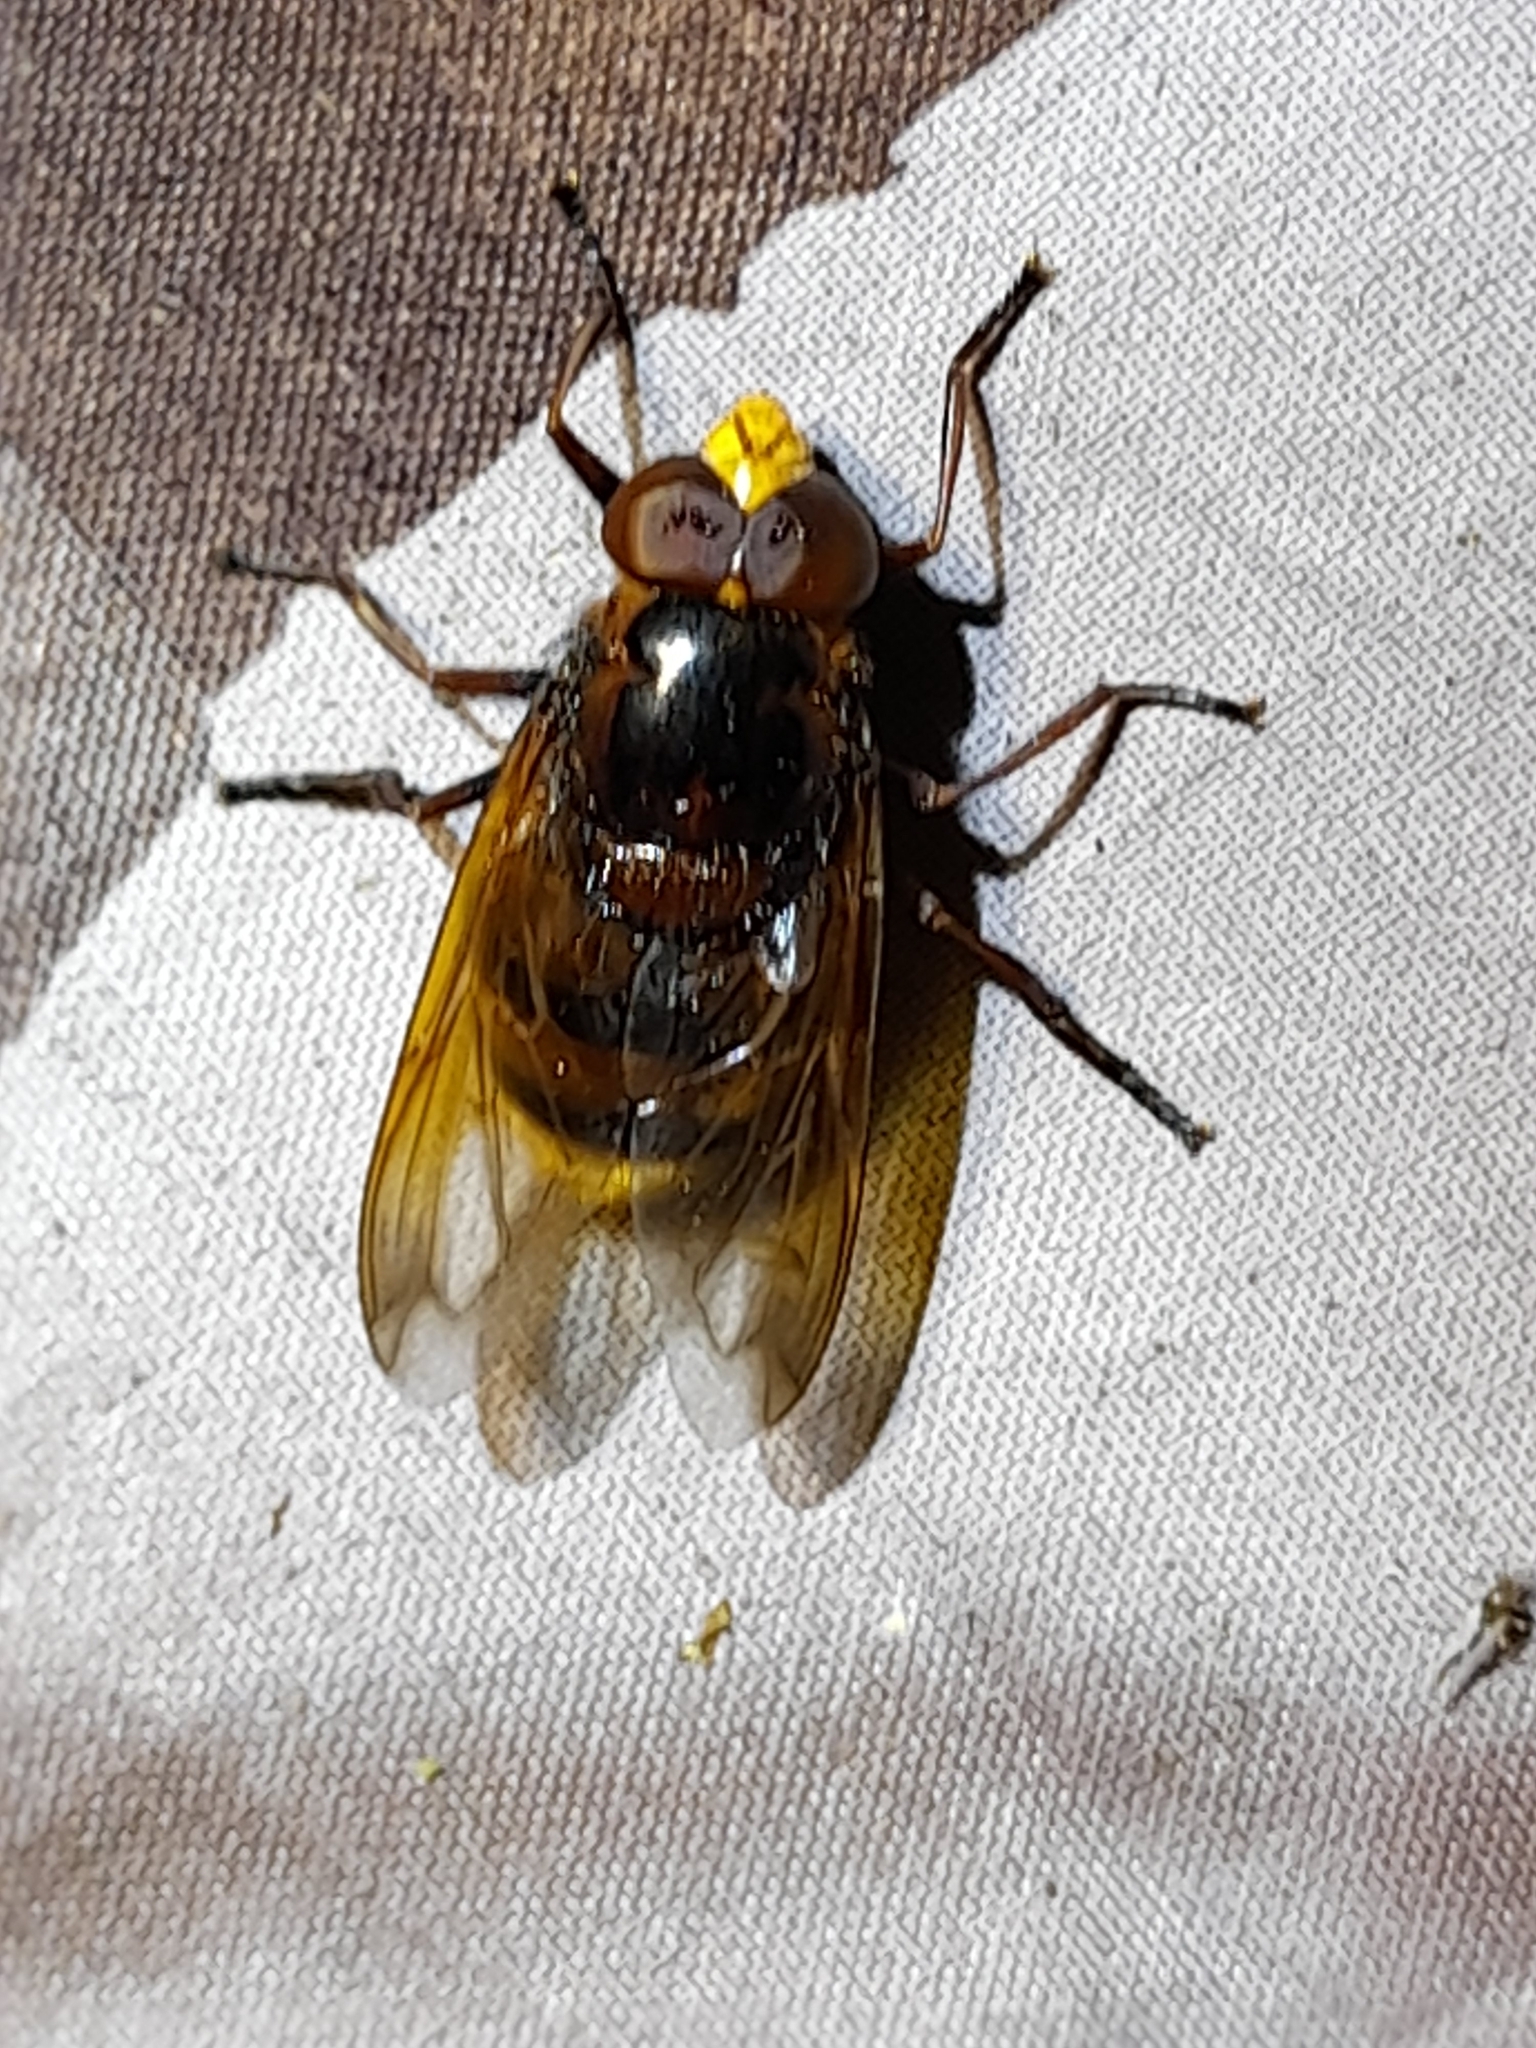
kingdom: Animalia
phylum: Arthropoda
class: Insecta
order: Diptera
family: Syrphidae
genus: Volucella
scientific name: Volucella zonaria
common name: Hornet hoverfly
